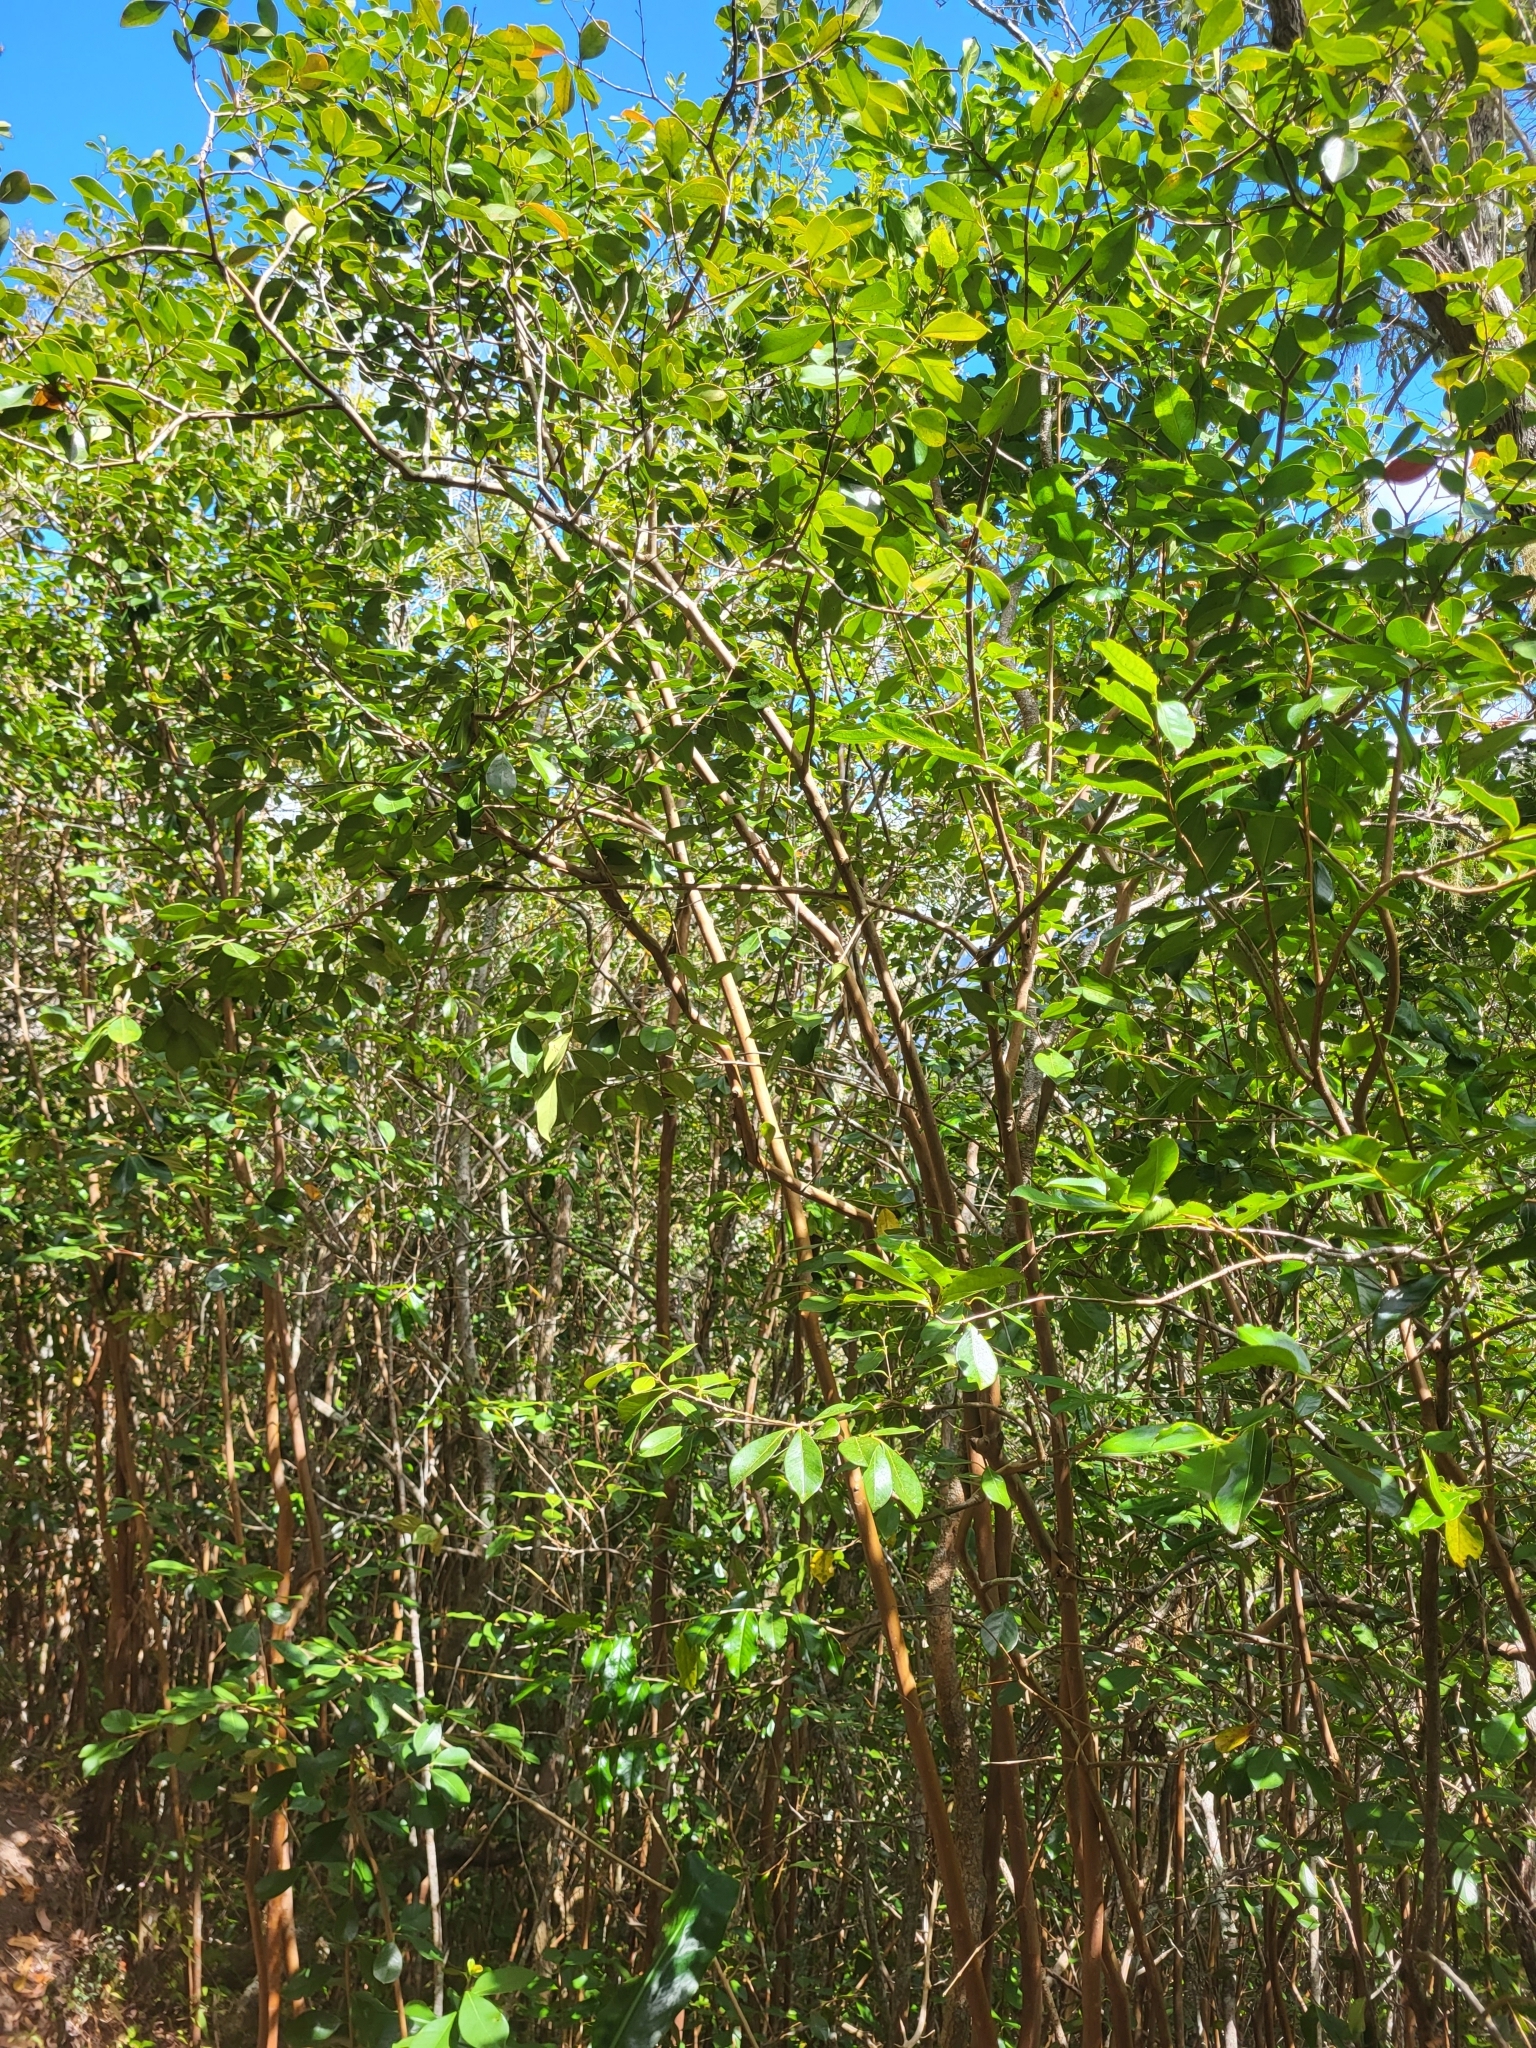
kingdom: Plantae
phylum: Tracheophyta
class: Magnoliopsida
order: Myrtales
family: Myrtaceae
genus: Psidium
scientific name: Psidium cattleianum
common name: Strawberry guava
